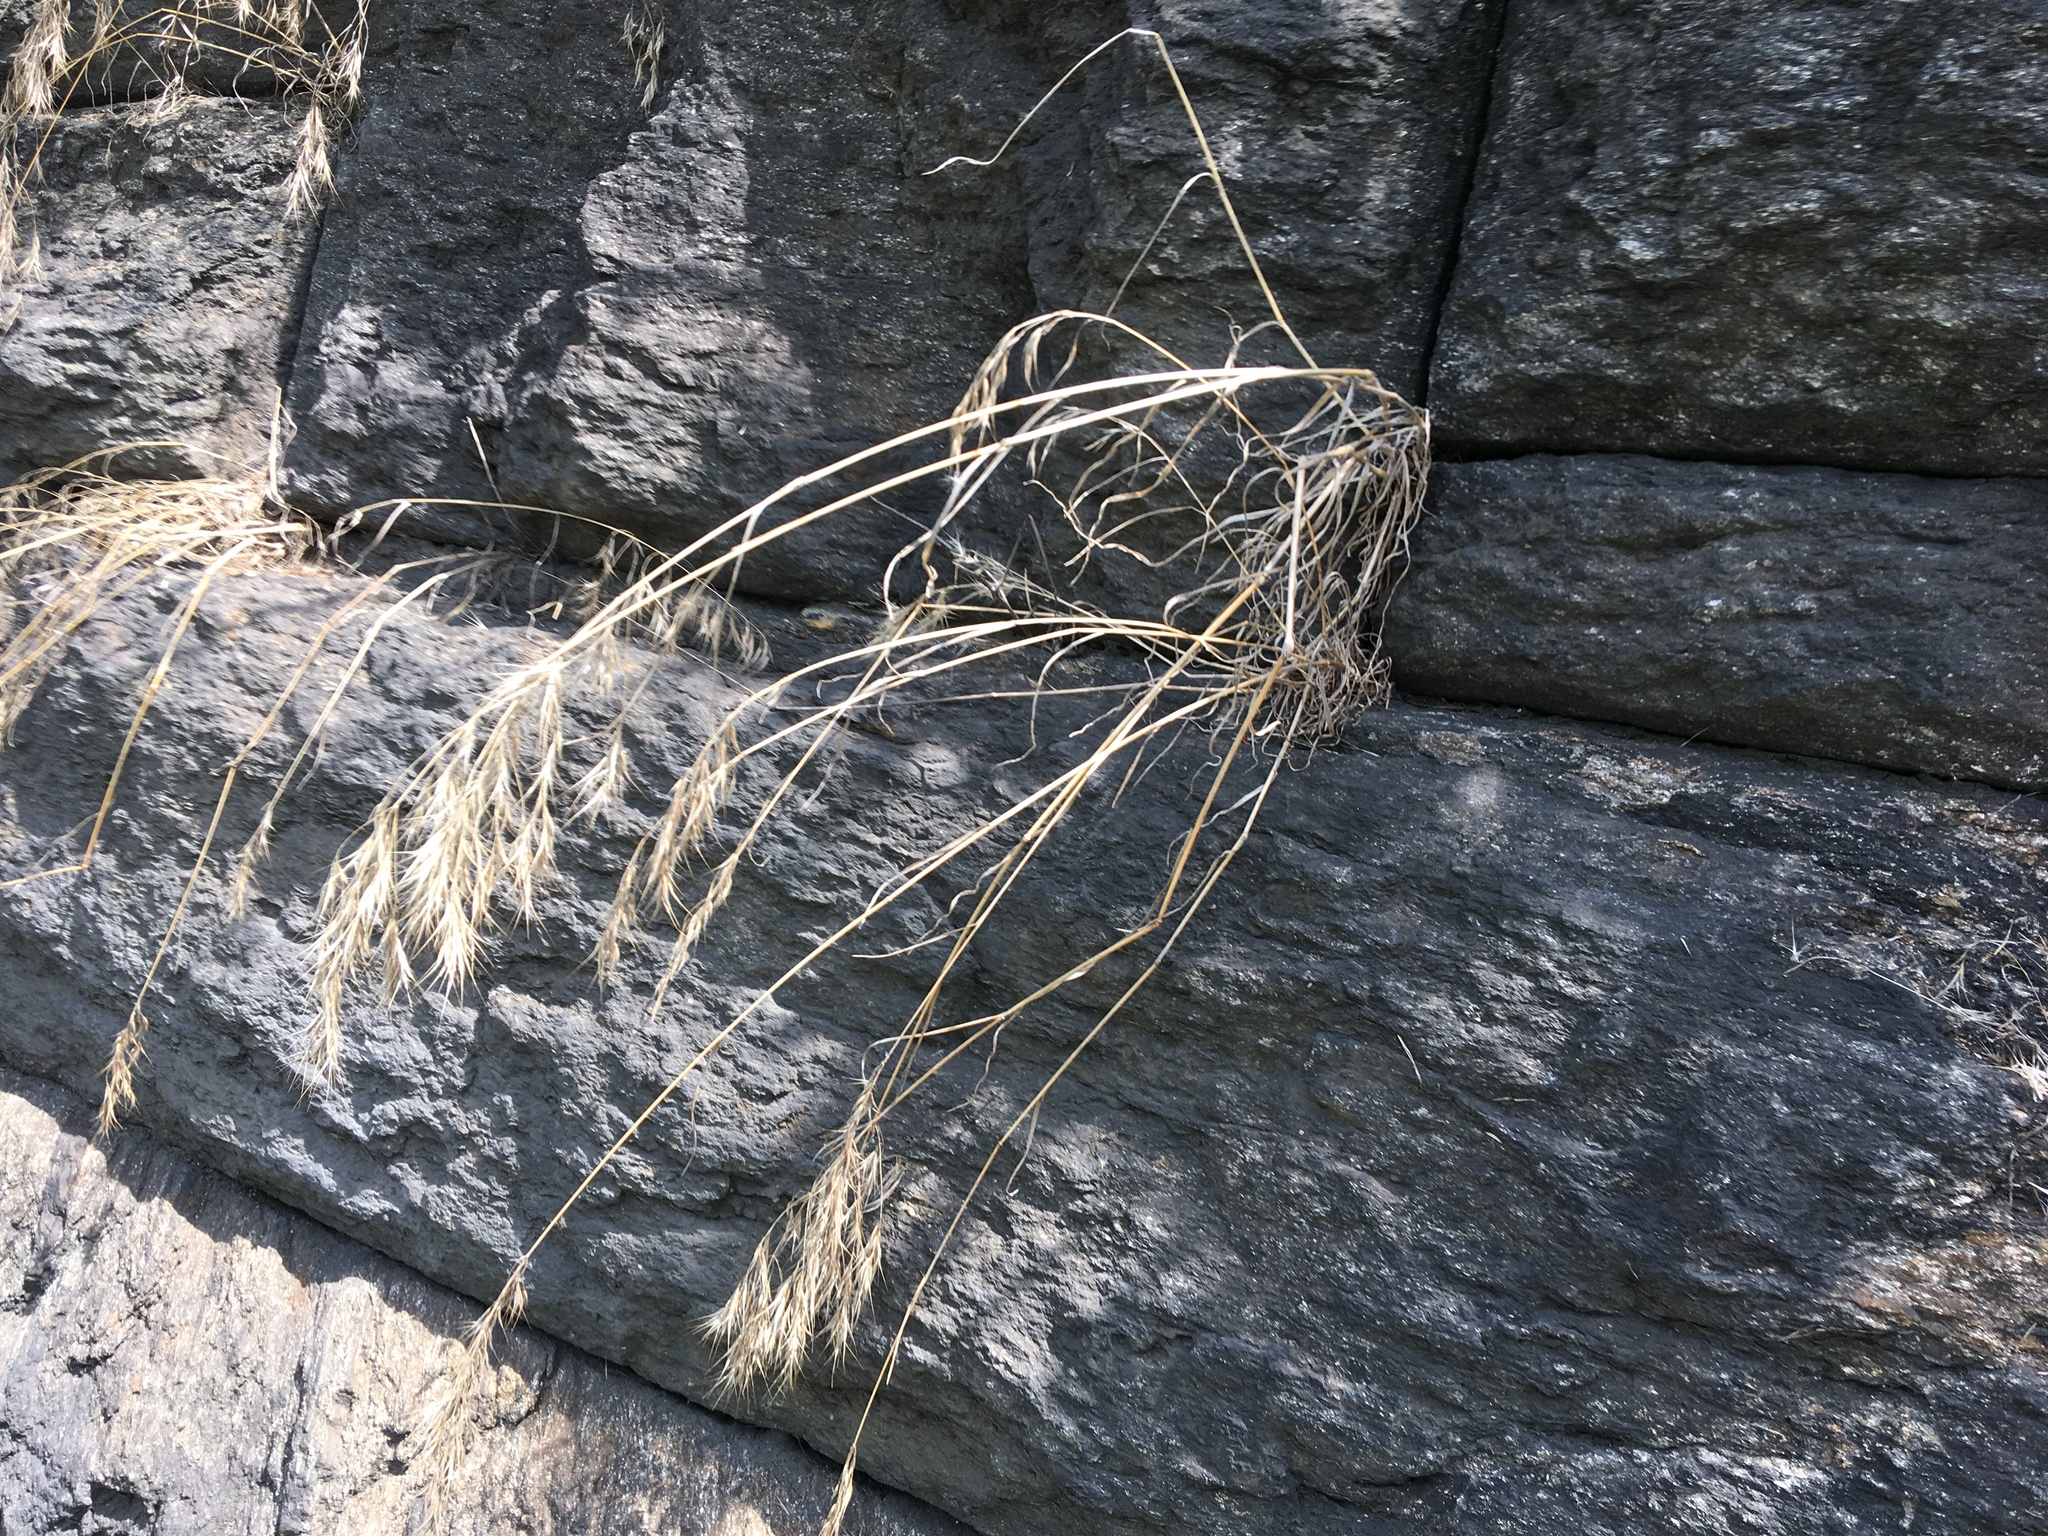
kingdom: Plantae
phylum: Tracheophyta
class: Liliopsida
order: Poales
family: Poaceae
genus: Bromus
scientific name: Bromus tectorum
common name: Cheatgrass
